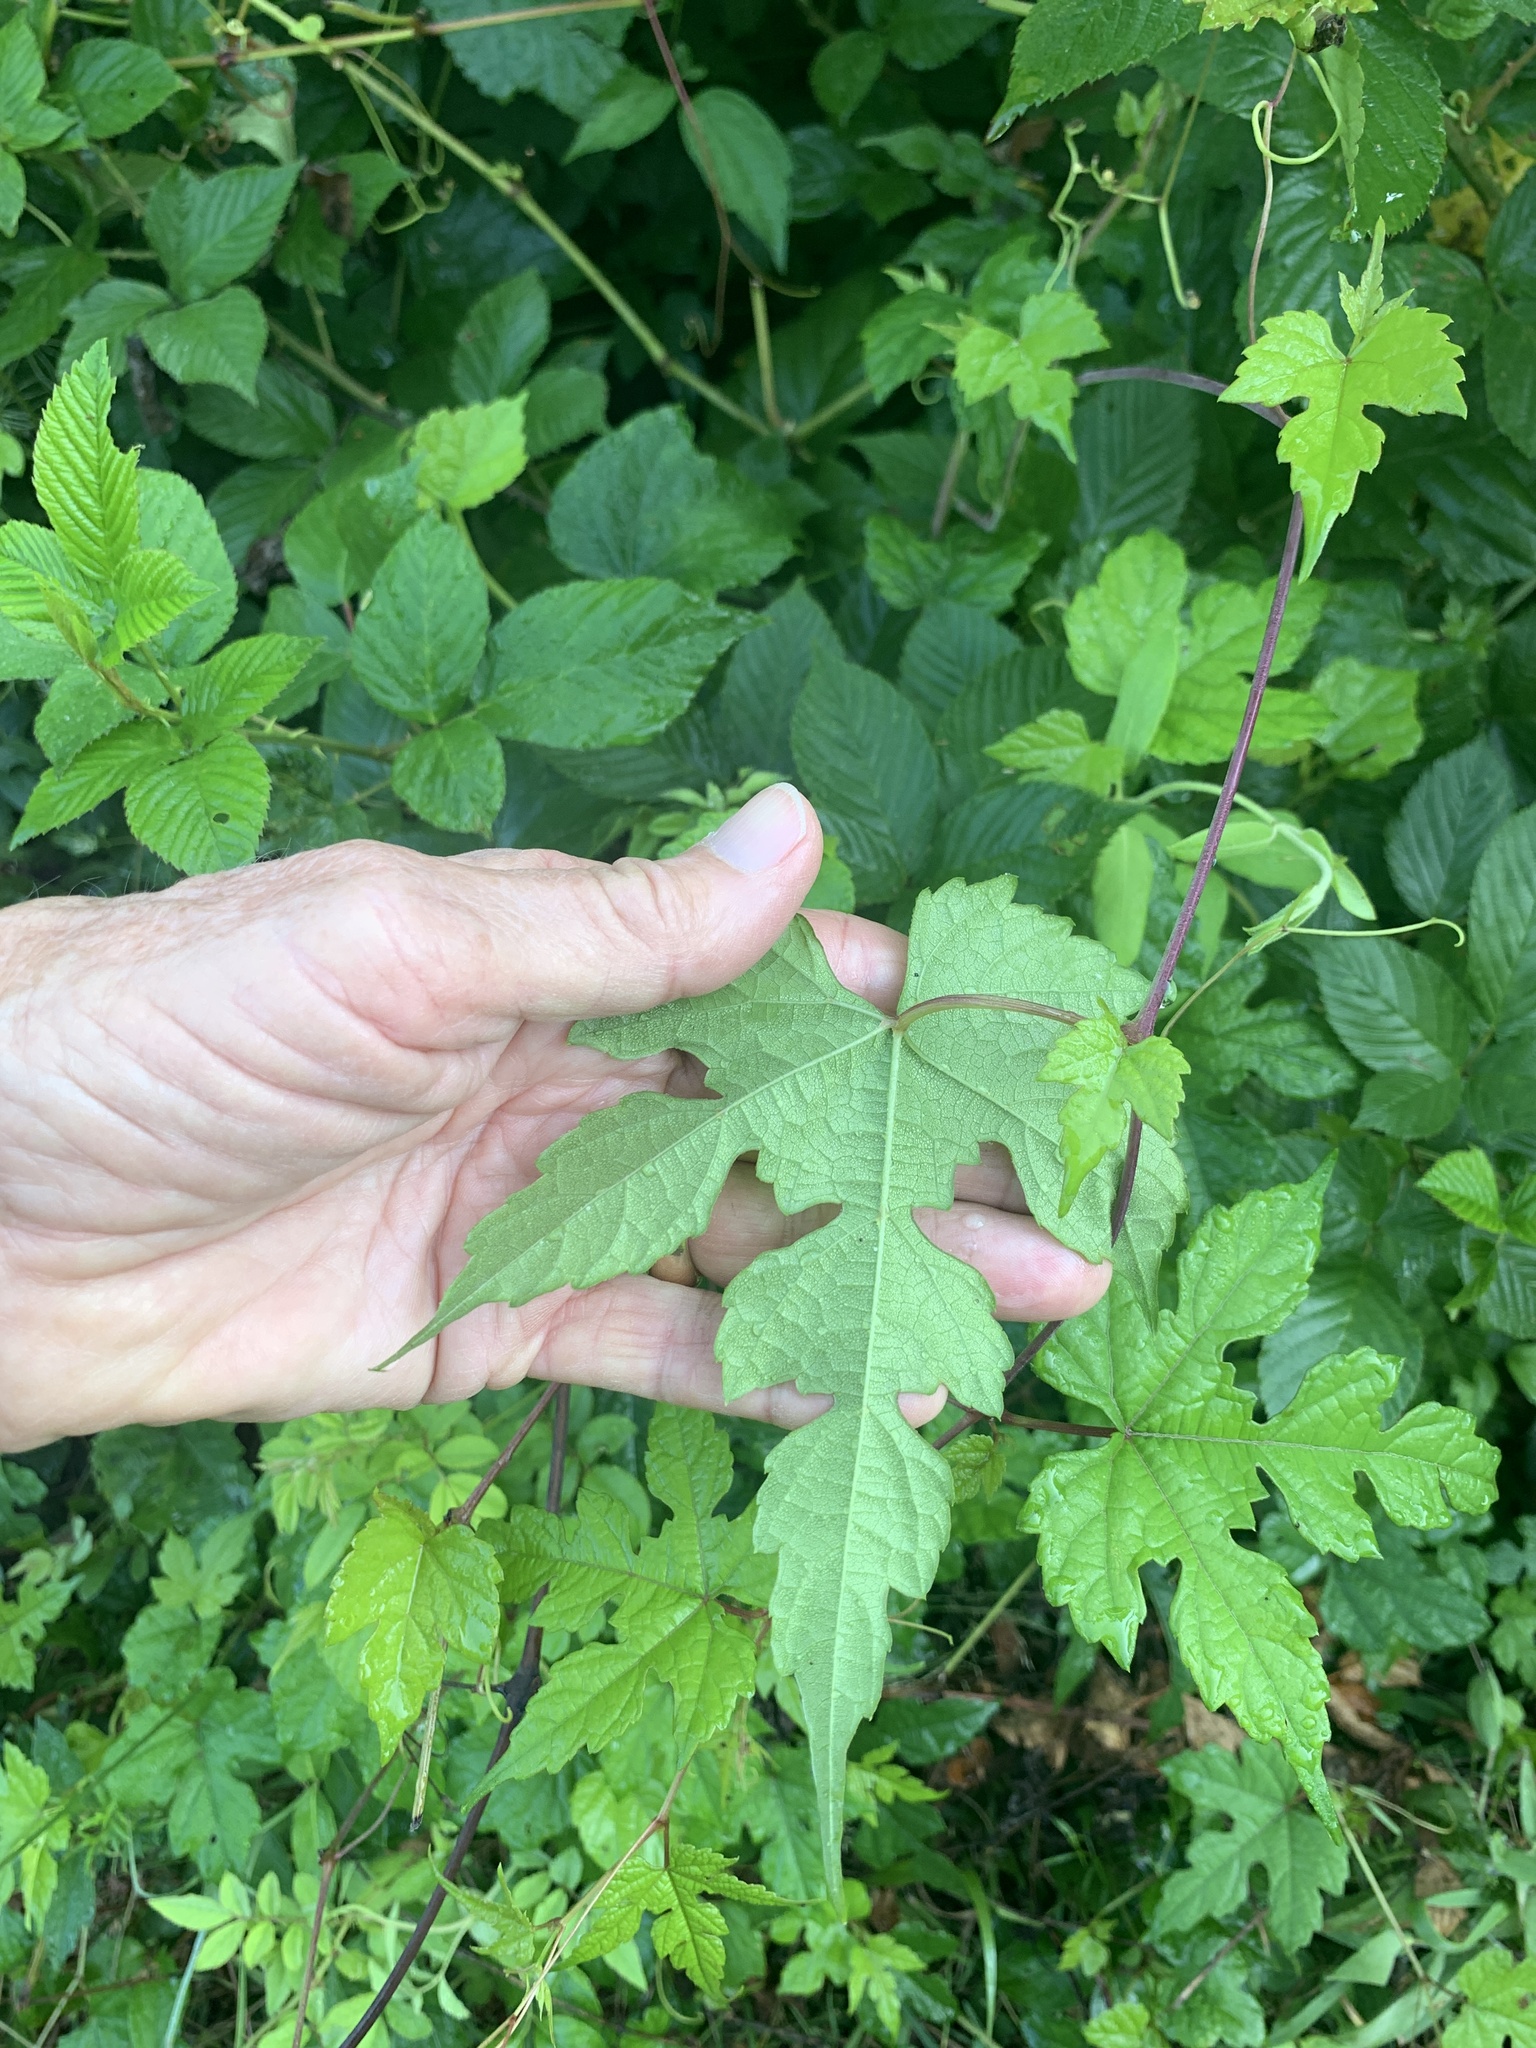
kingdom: Plantae
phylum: Tracheophyta
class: Magnoliopsida
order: Vitales
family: Vitaceae
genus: Ampelopsis
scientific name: Ampelopsis glandulosa
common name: Amur peppervine
